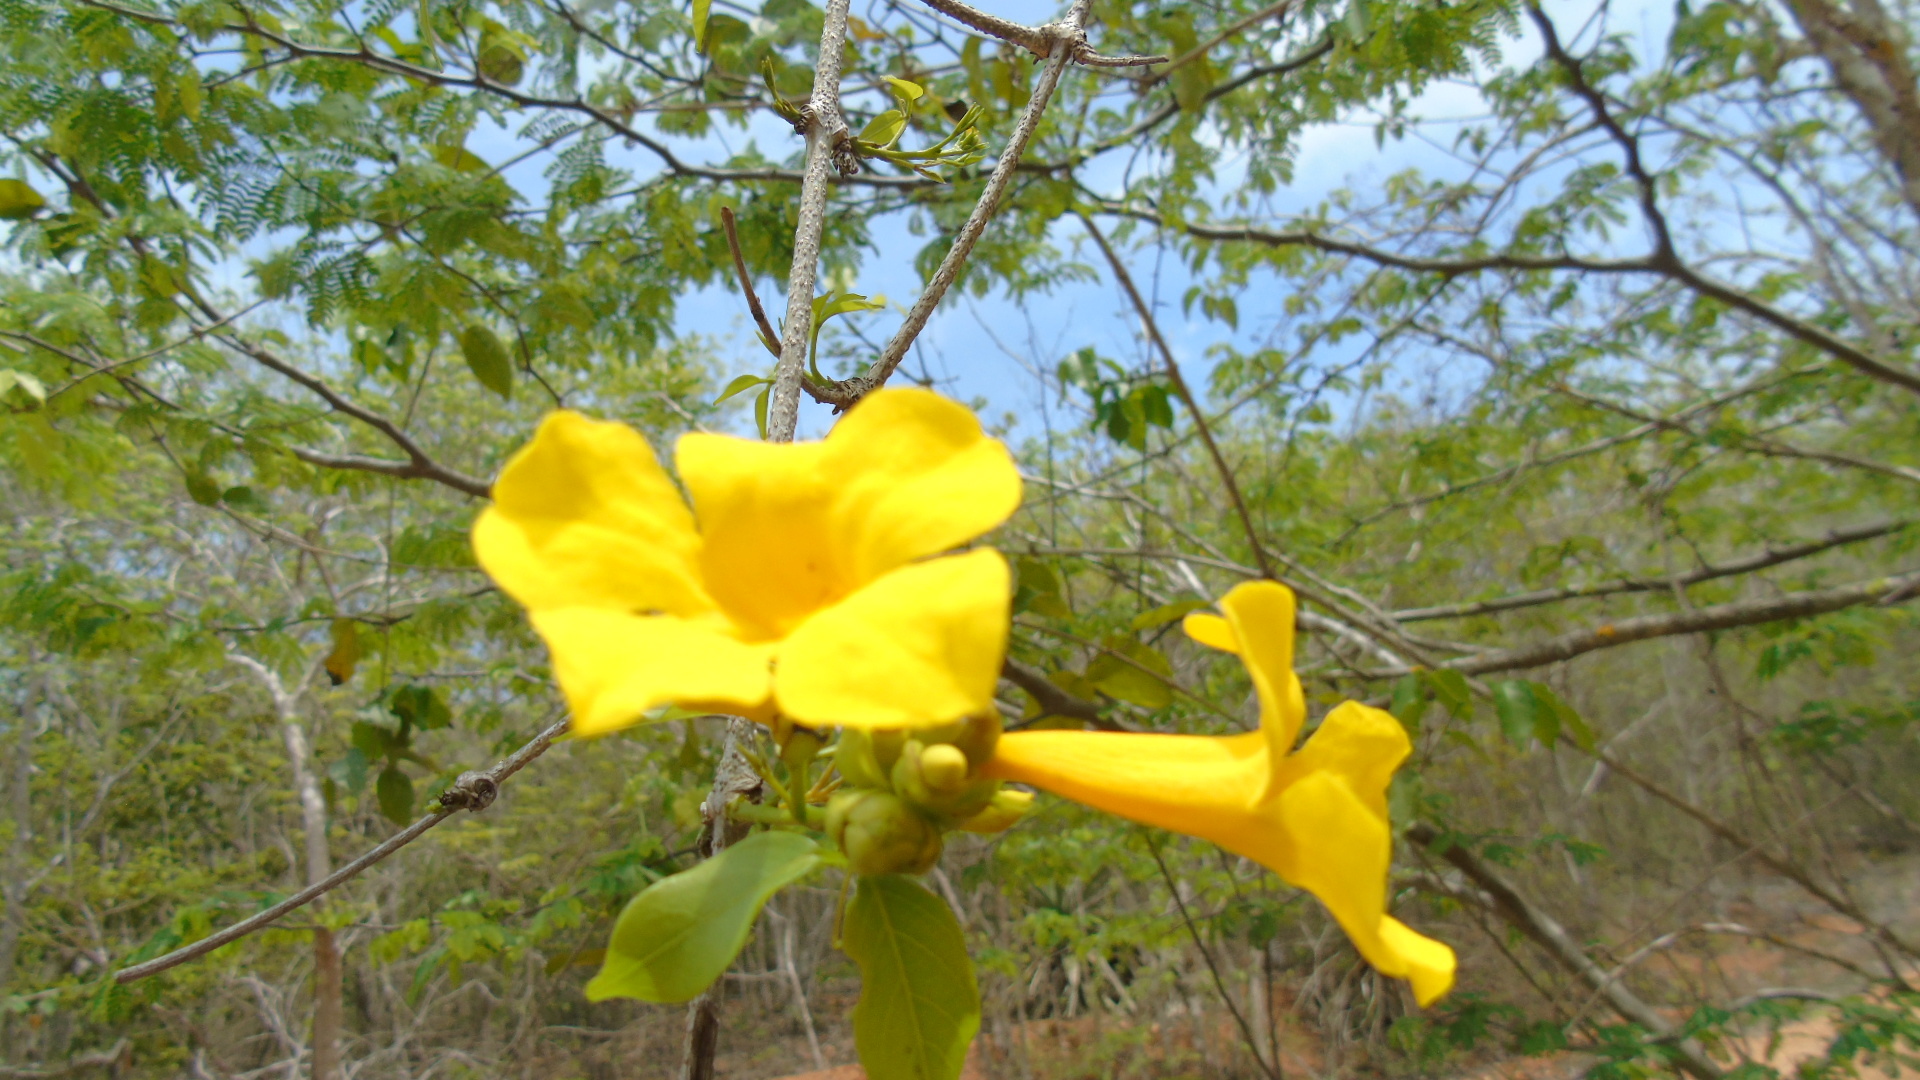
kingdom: Plantae
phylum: Tracheophyta
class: Magnoliopsida
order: Lamiales
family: Bignoniaceae
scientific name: Bignoniaceae
